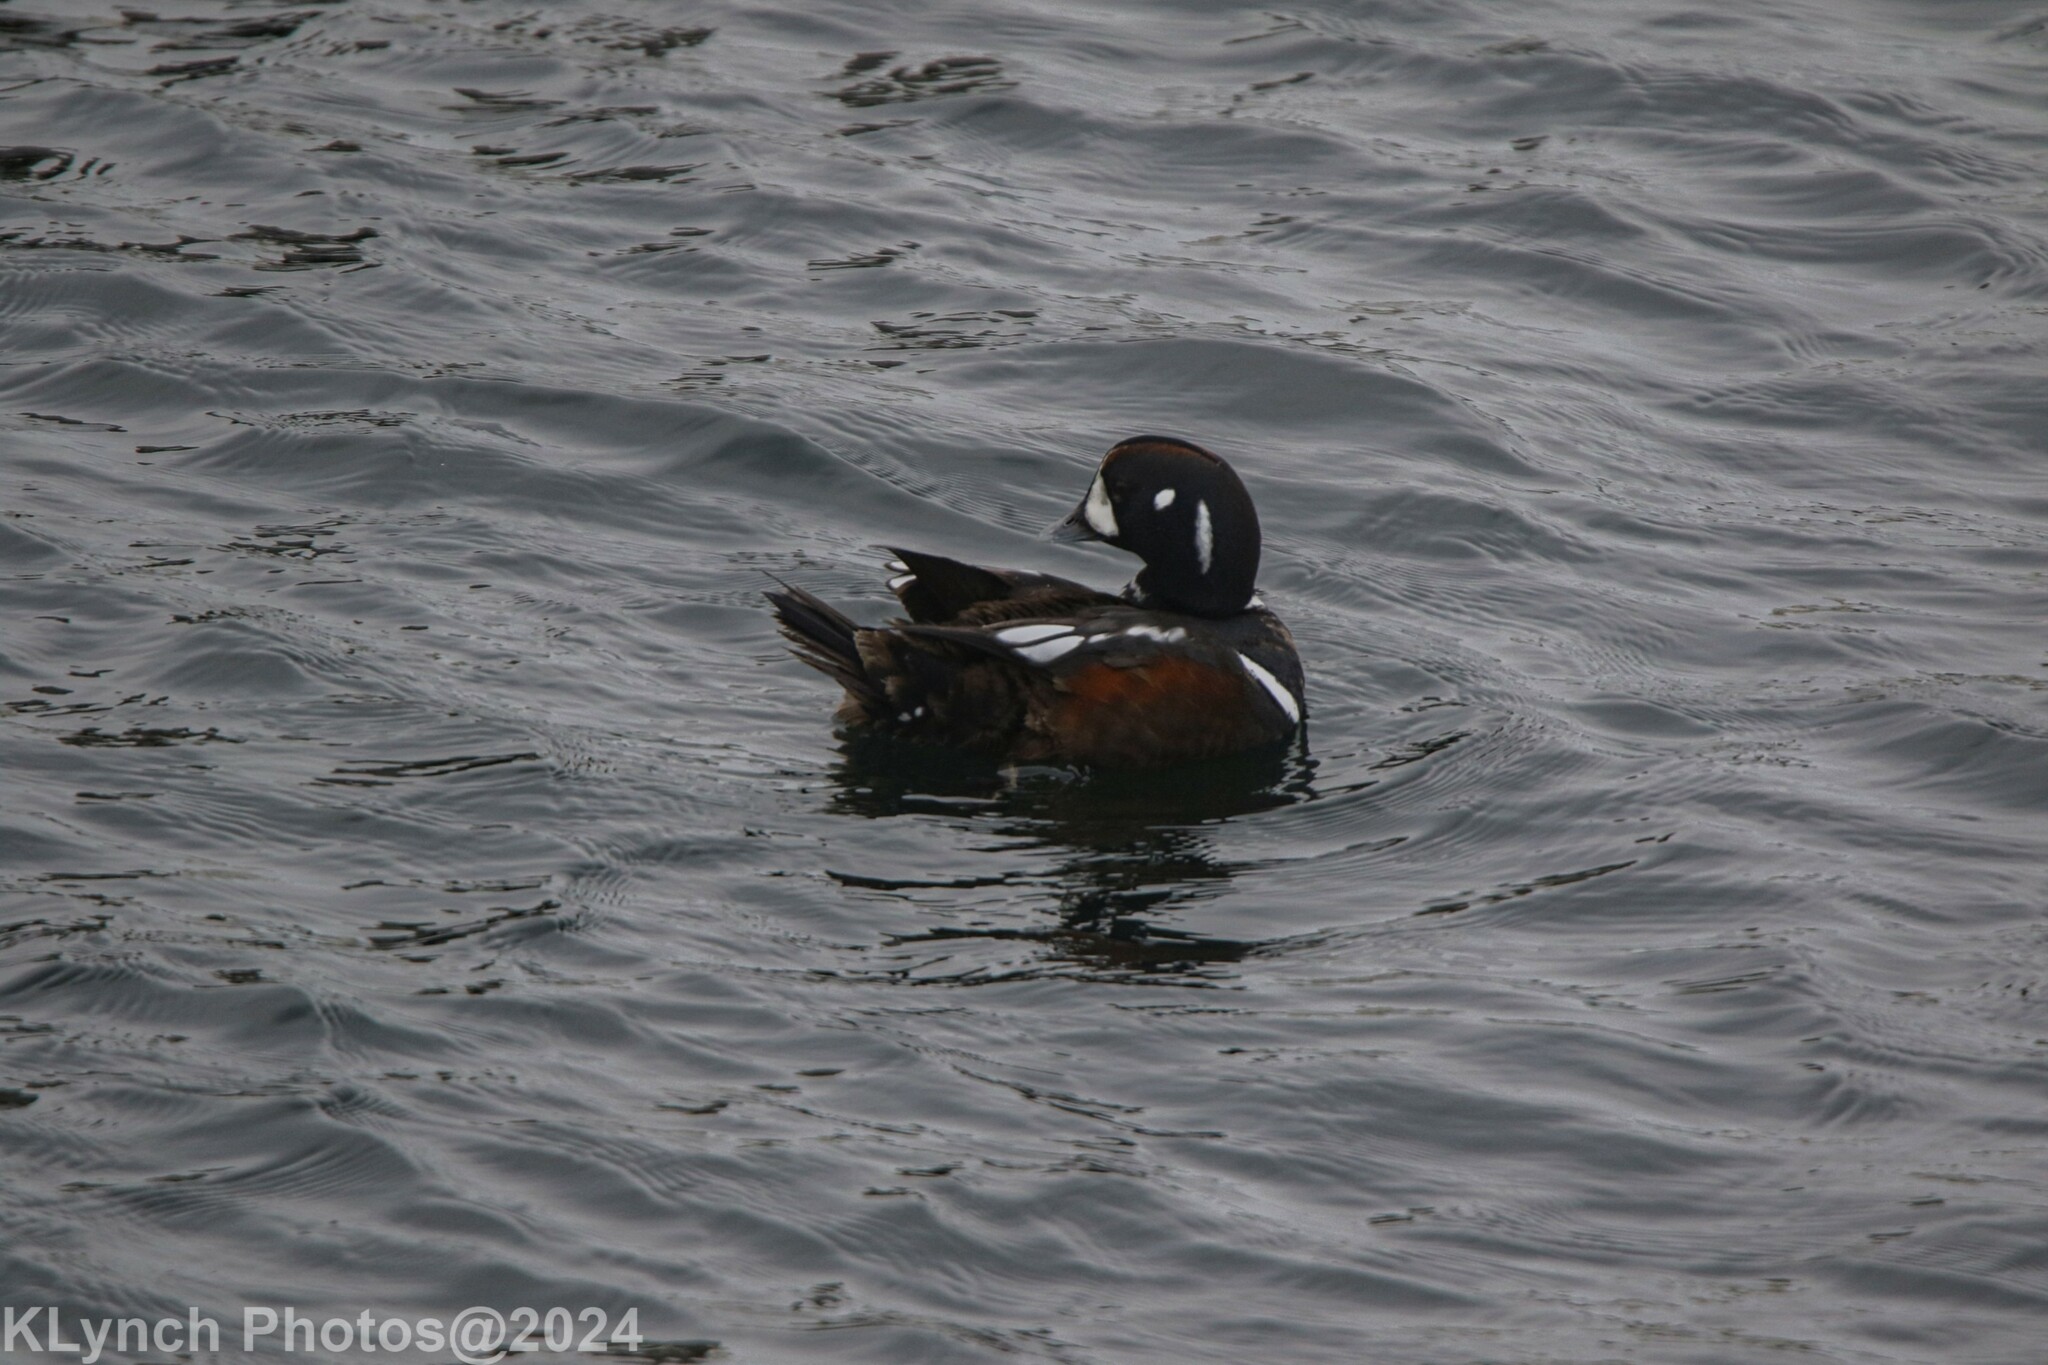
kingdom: Animalia
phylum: Chordata
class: Aves
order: Anseriformes
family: Anatidae
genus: Histrionicus
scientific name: Histrionicus histrionicus
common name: Harlequin duck
